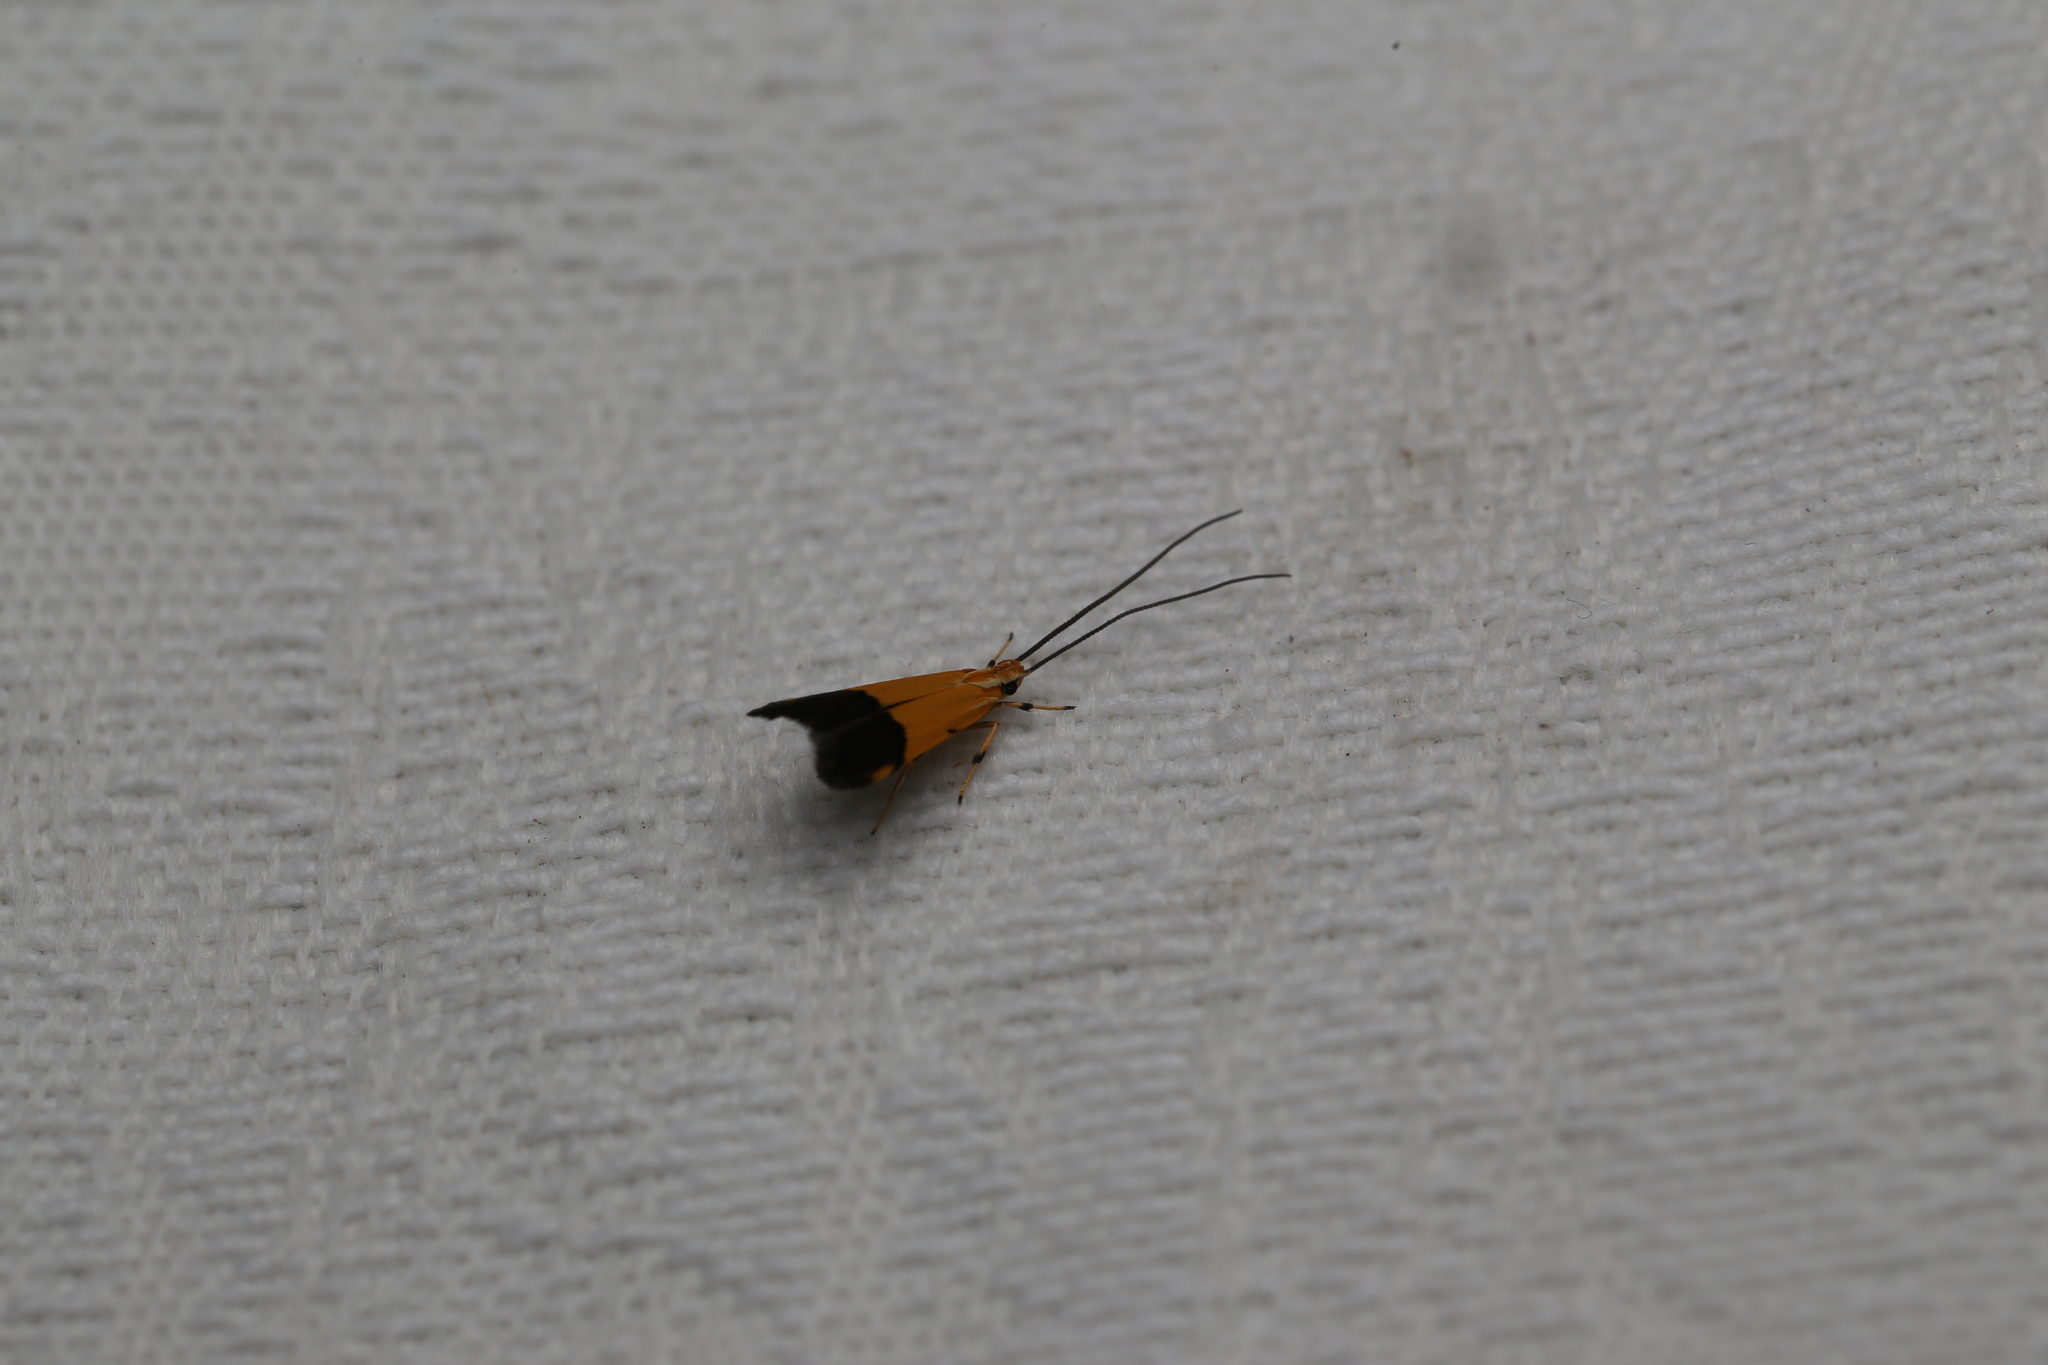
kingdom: Animalia
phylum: Arthropoda
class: Insecta
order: Lepidoptera
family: Lecithoceridae
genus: Crocanthes
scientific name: Crocanthes micradelpha
